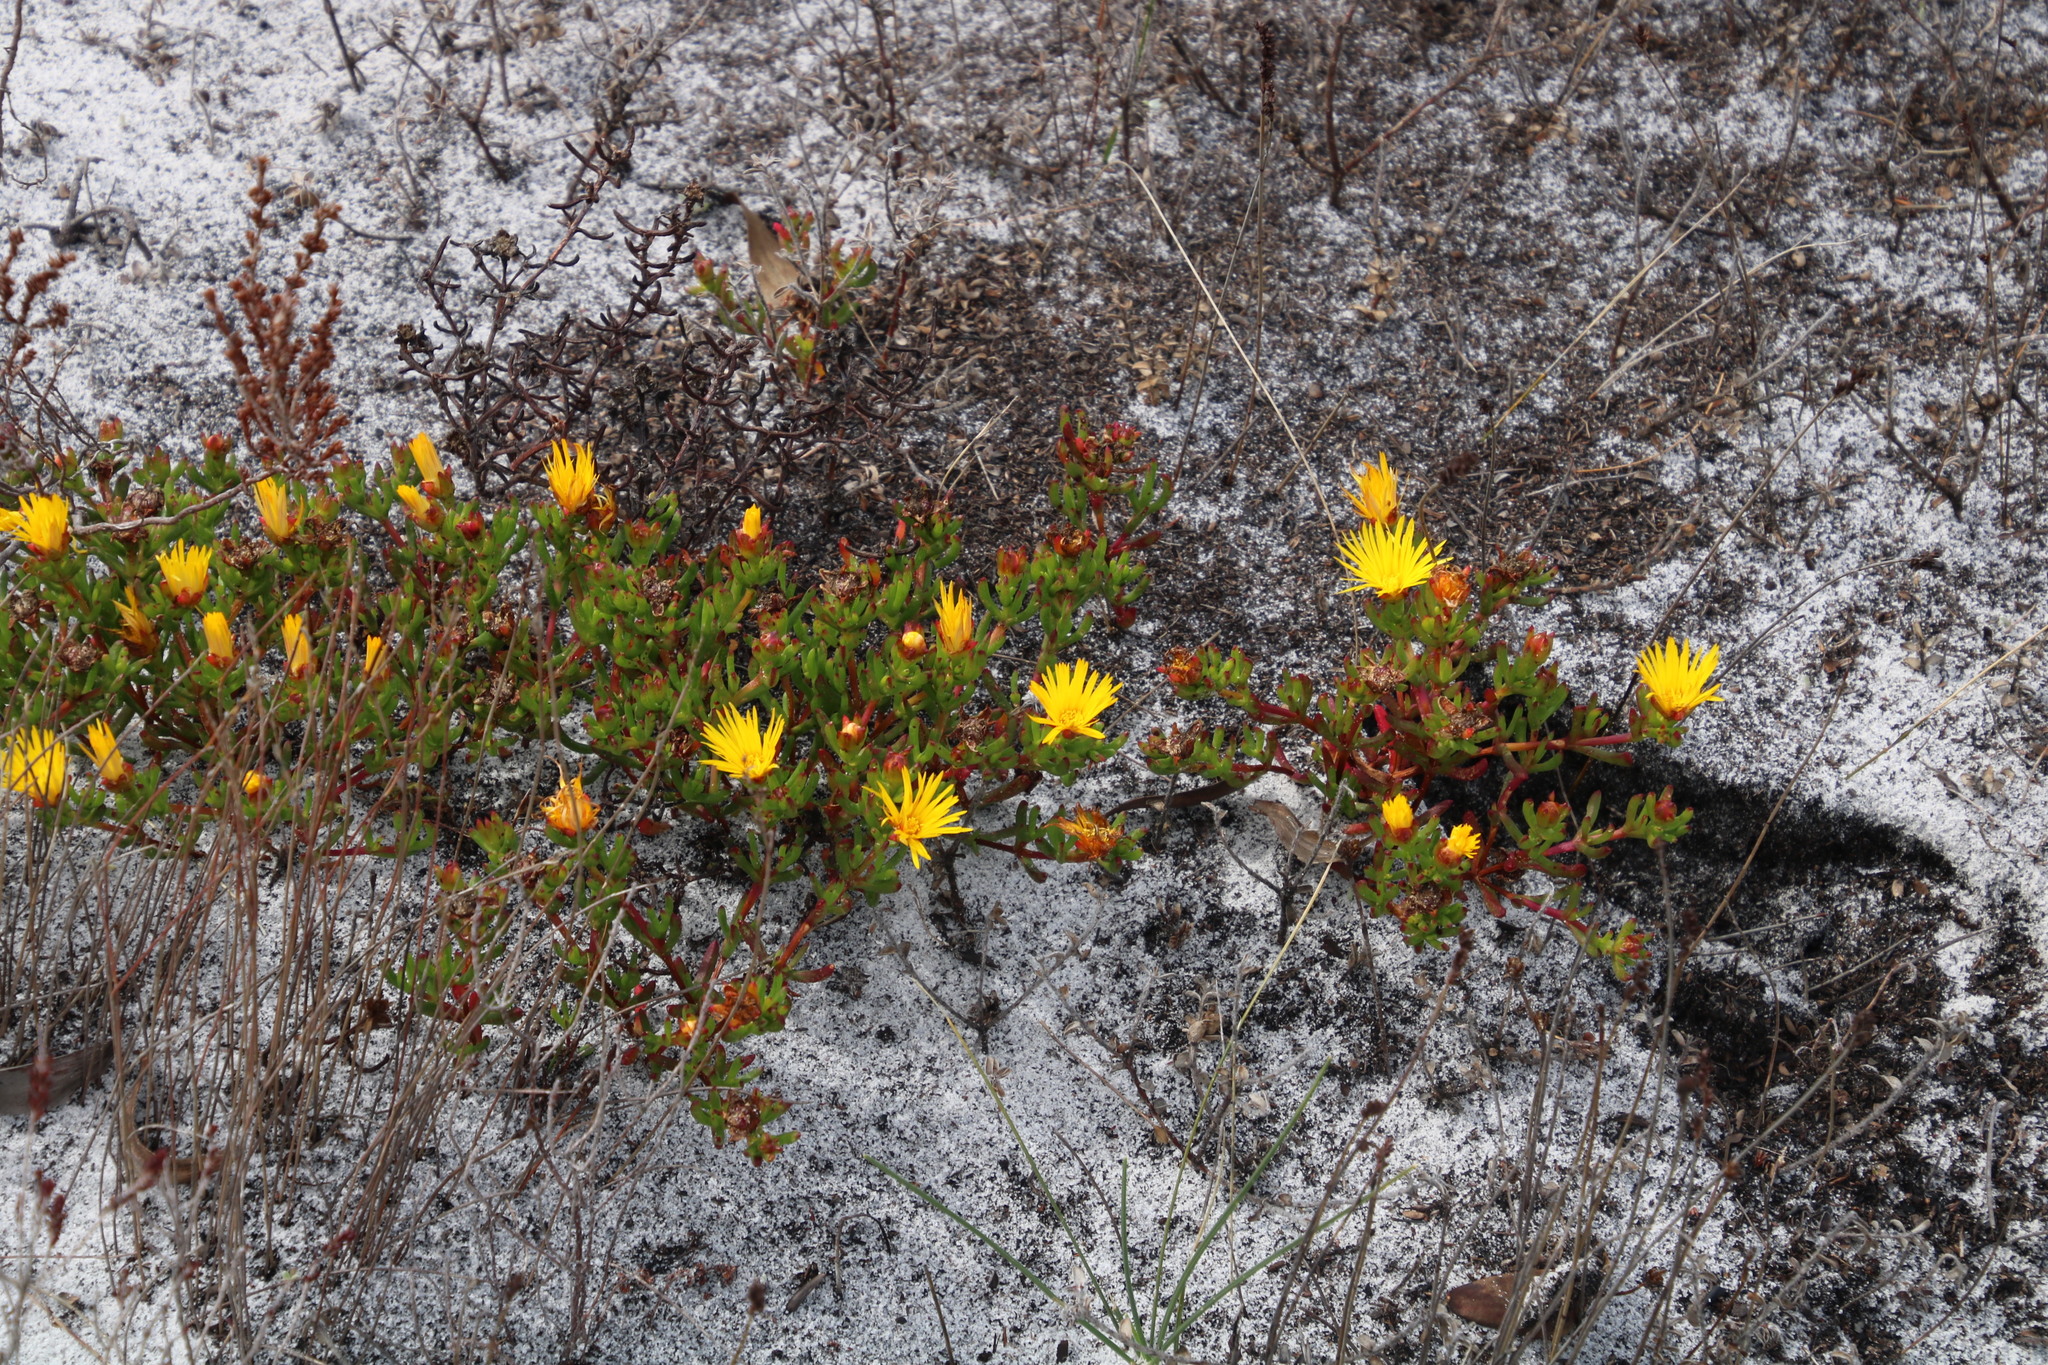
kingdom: Plantae
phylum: Tracheophyta
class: Magnoliopsida
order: Caryophyllales
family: Aizoaceae
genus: Lampranthus
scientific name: Lampranthus bicolor
